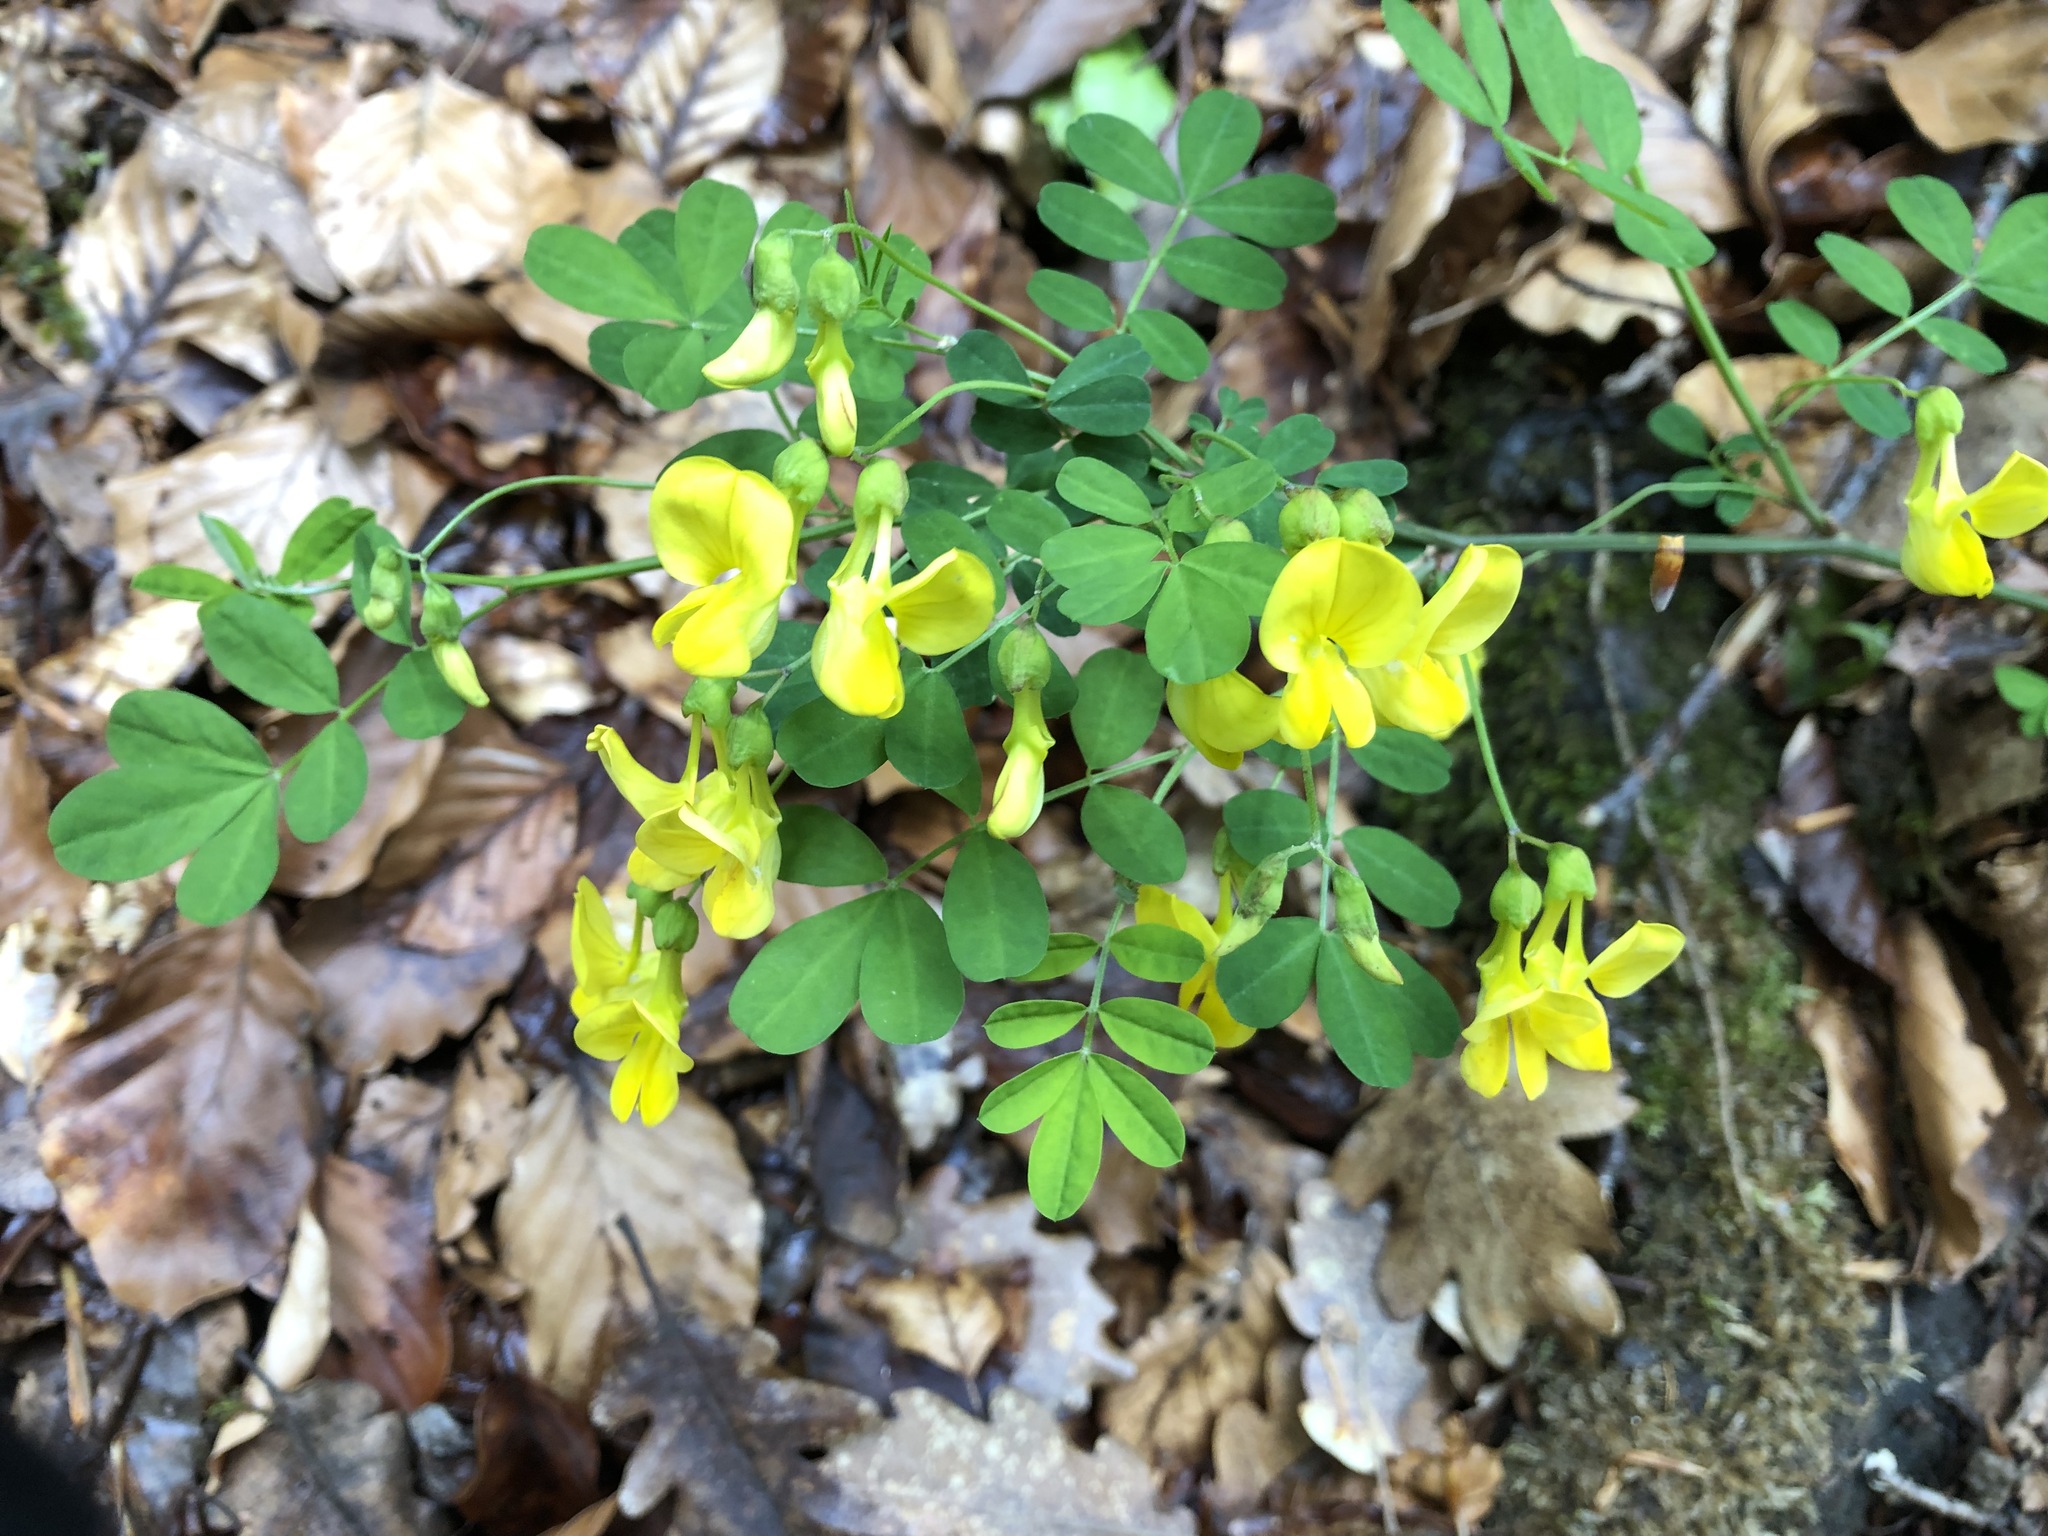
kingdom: Plantae
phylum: Tracheophyta
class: Magnoliopsida
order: Fabales
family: Fabaceae
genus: Hippocrepis
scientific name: Hippocrepis emerus
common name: Scorpion senna
